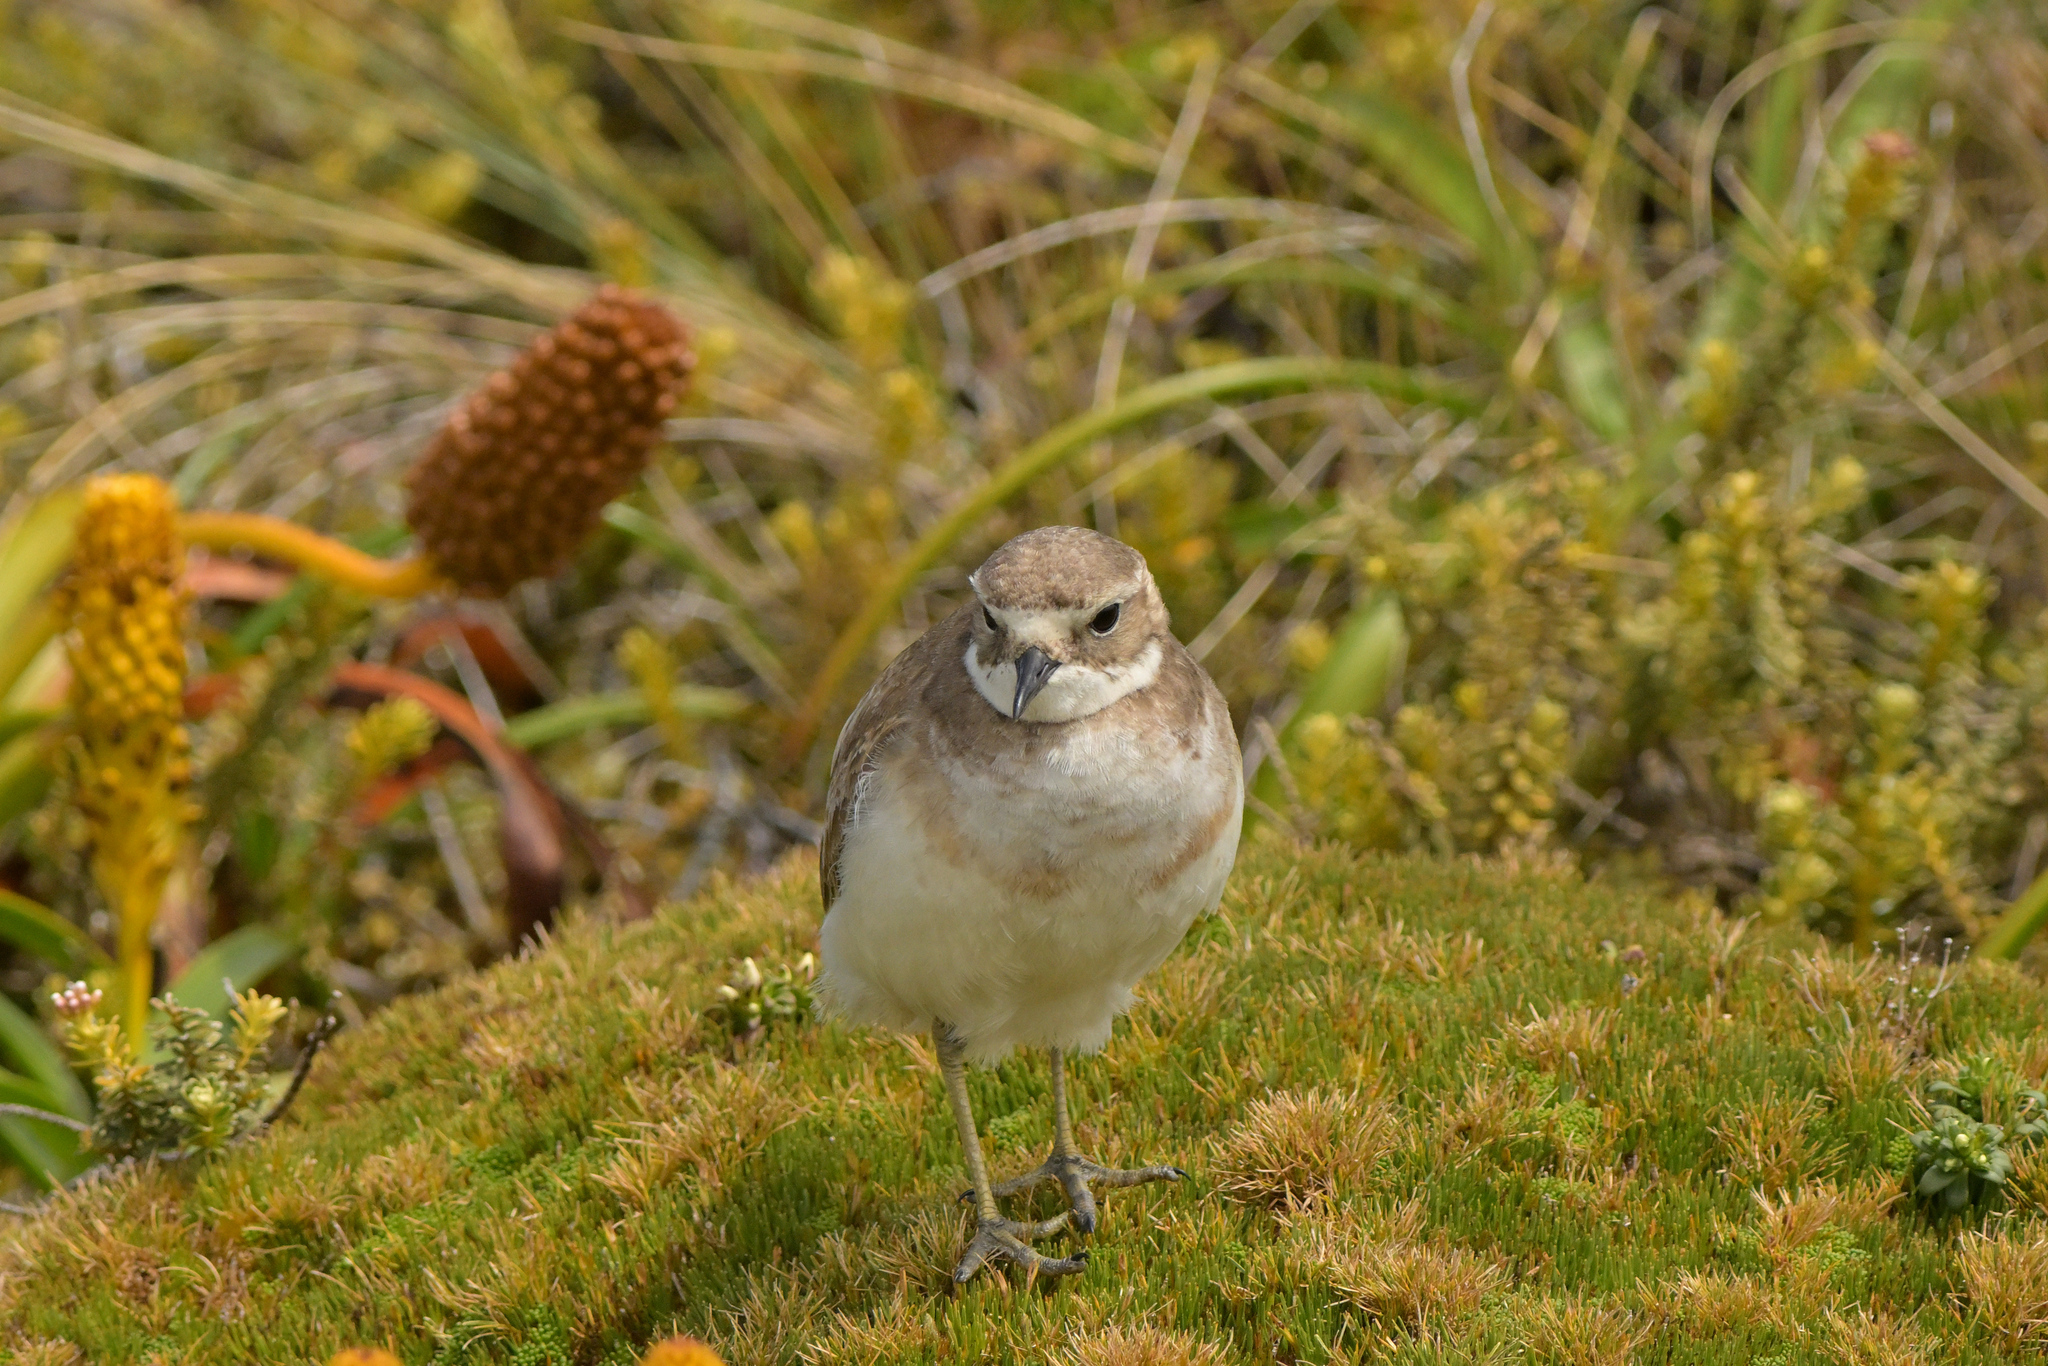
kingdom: Animalia
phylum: Chordata
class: Aves
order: Charadriiformes
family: Charadriidae
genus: Anarhynchus
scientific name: Anarhynchus
